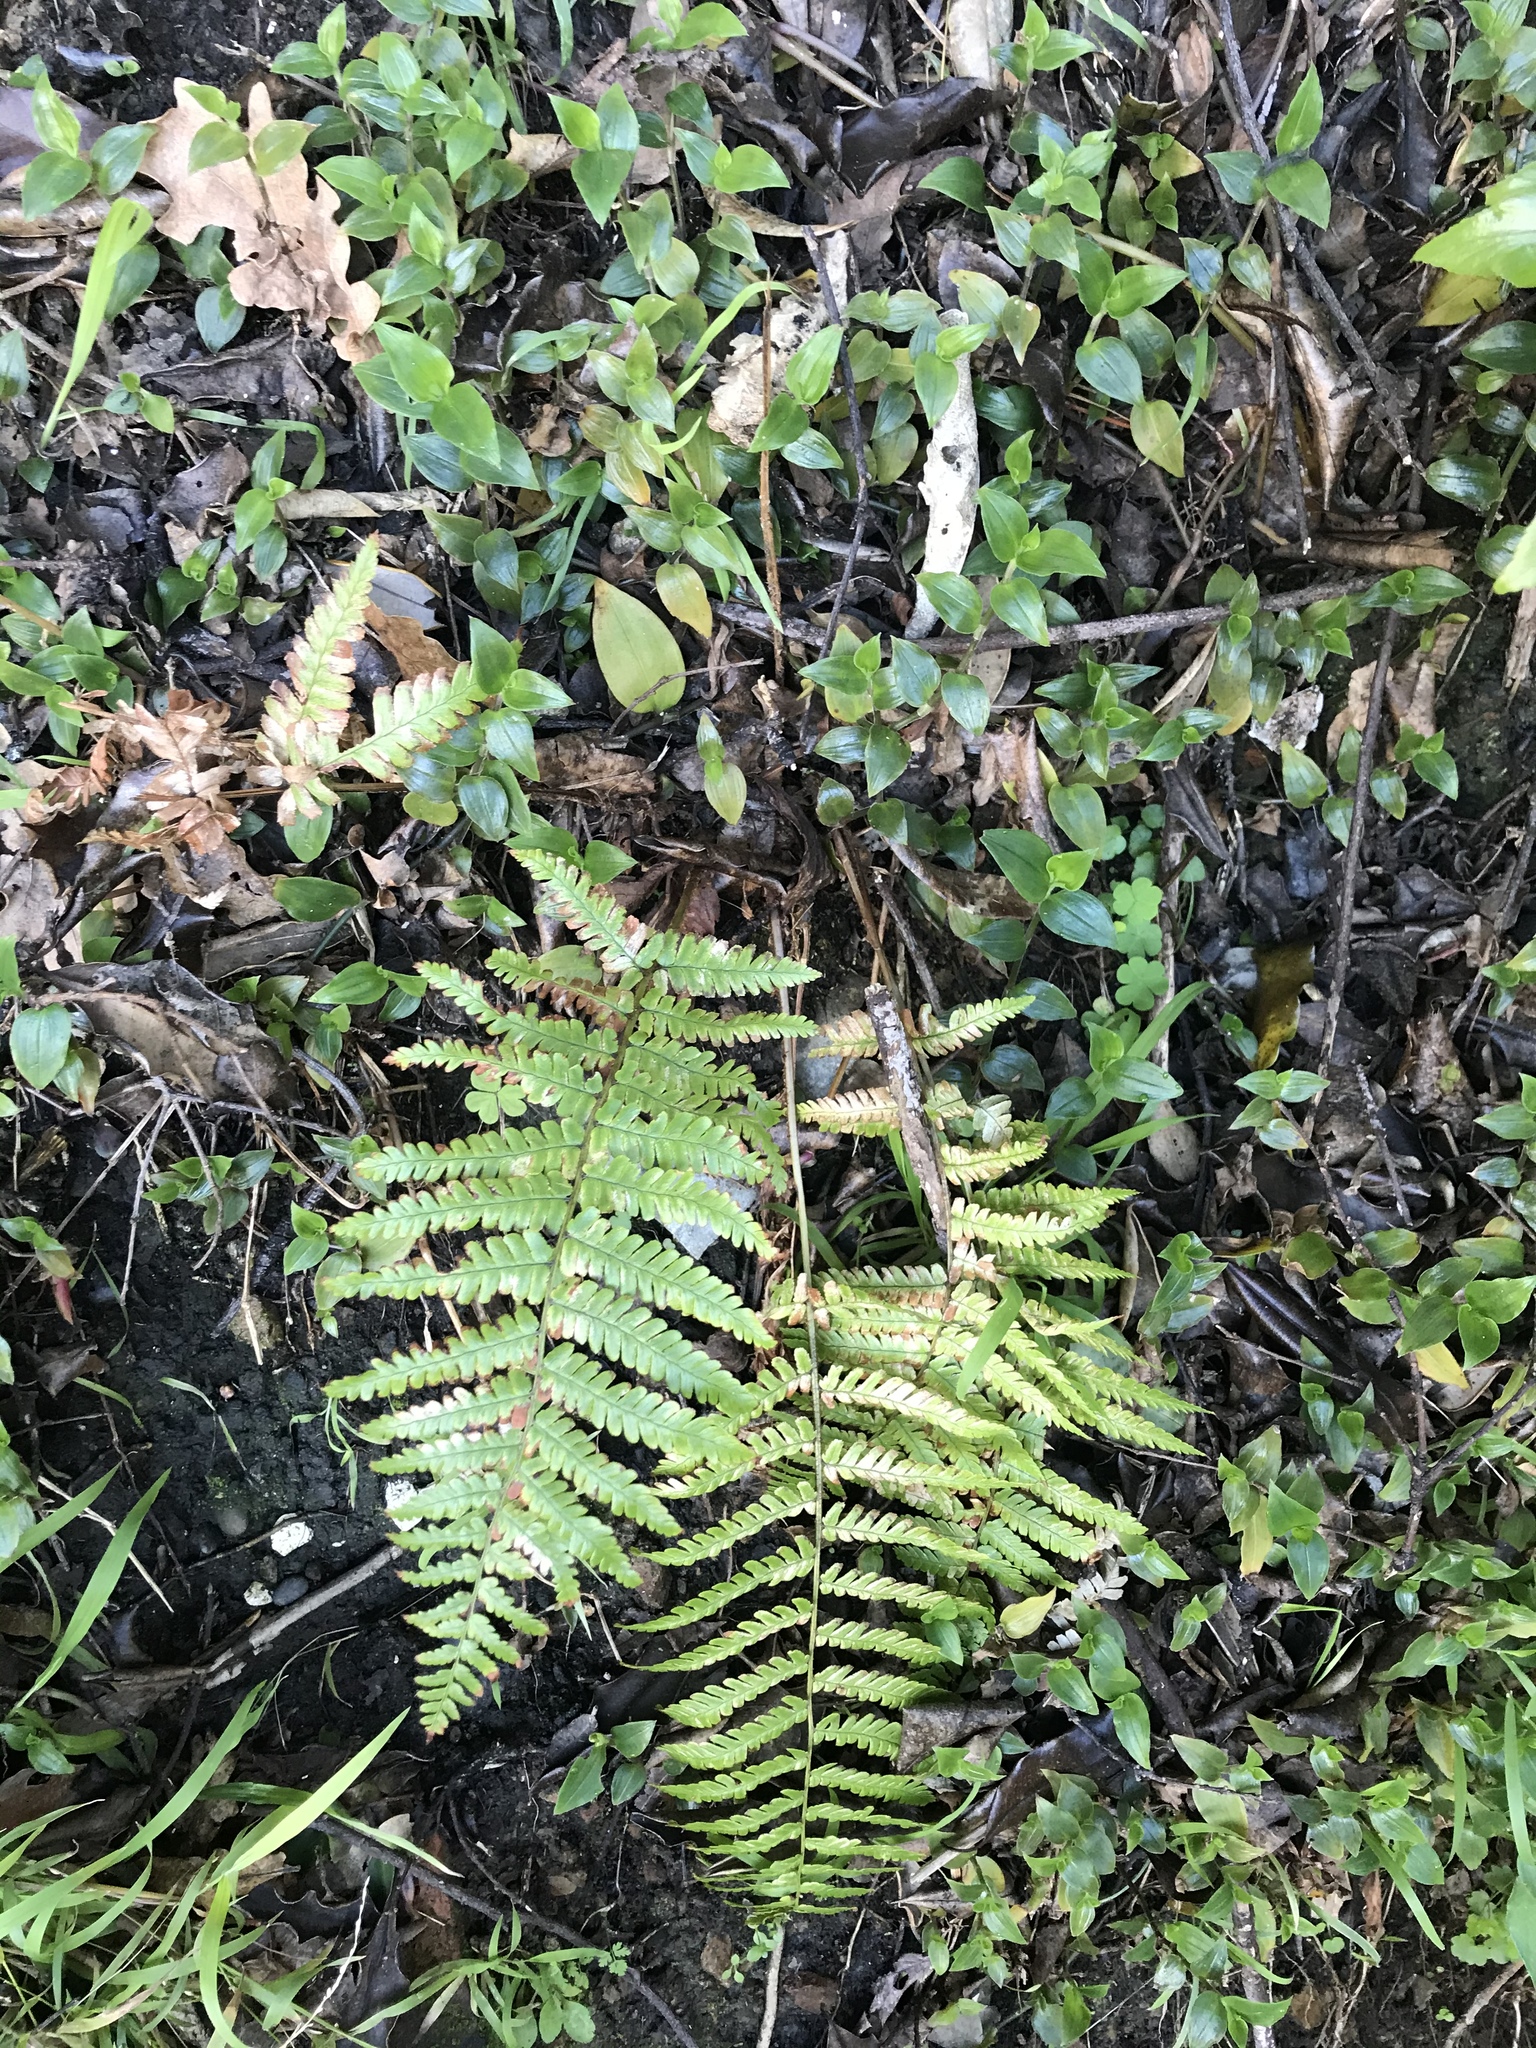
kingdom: Plantae
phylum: Tracheophyta
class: Polypodiopsida
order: Polypodiales
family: Thelypteridaceae
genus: Pakau
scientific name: Pakau pennigera
